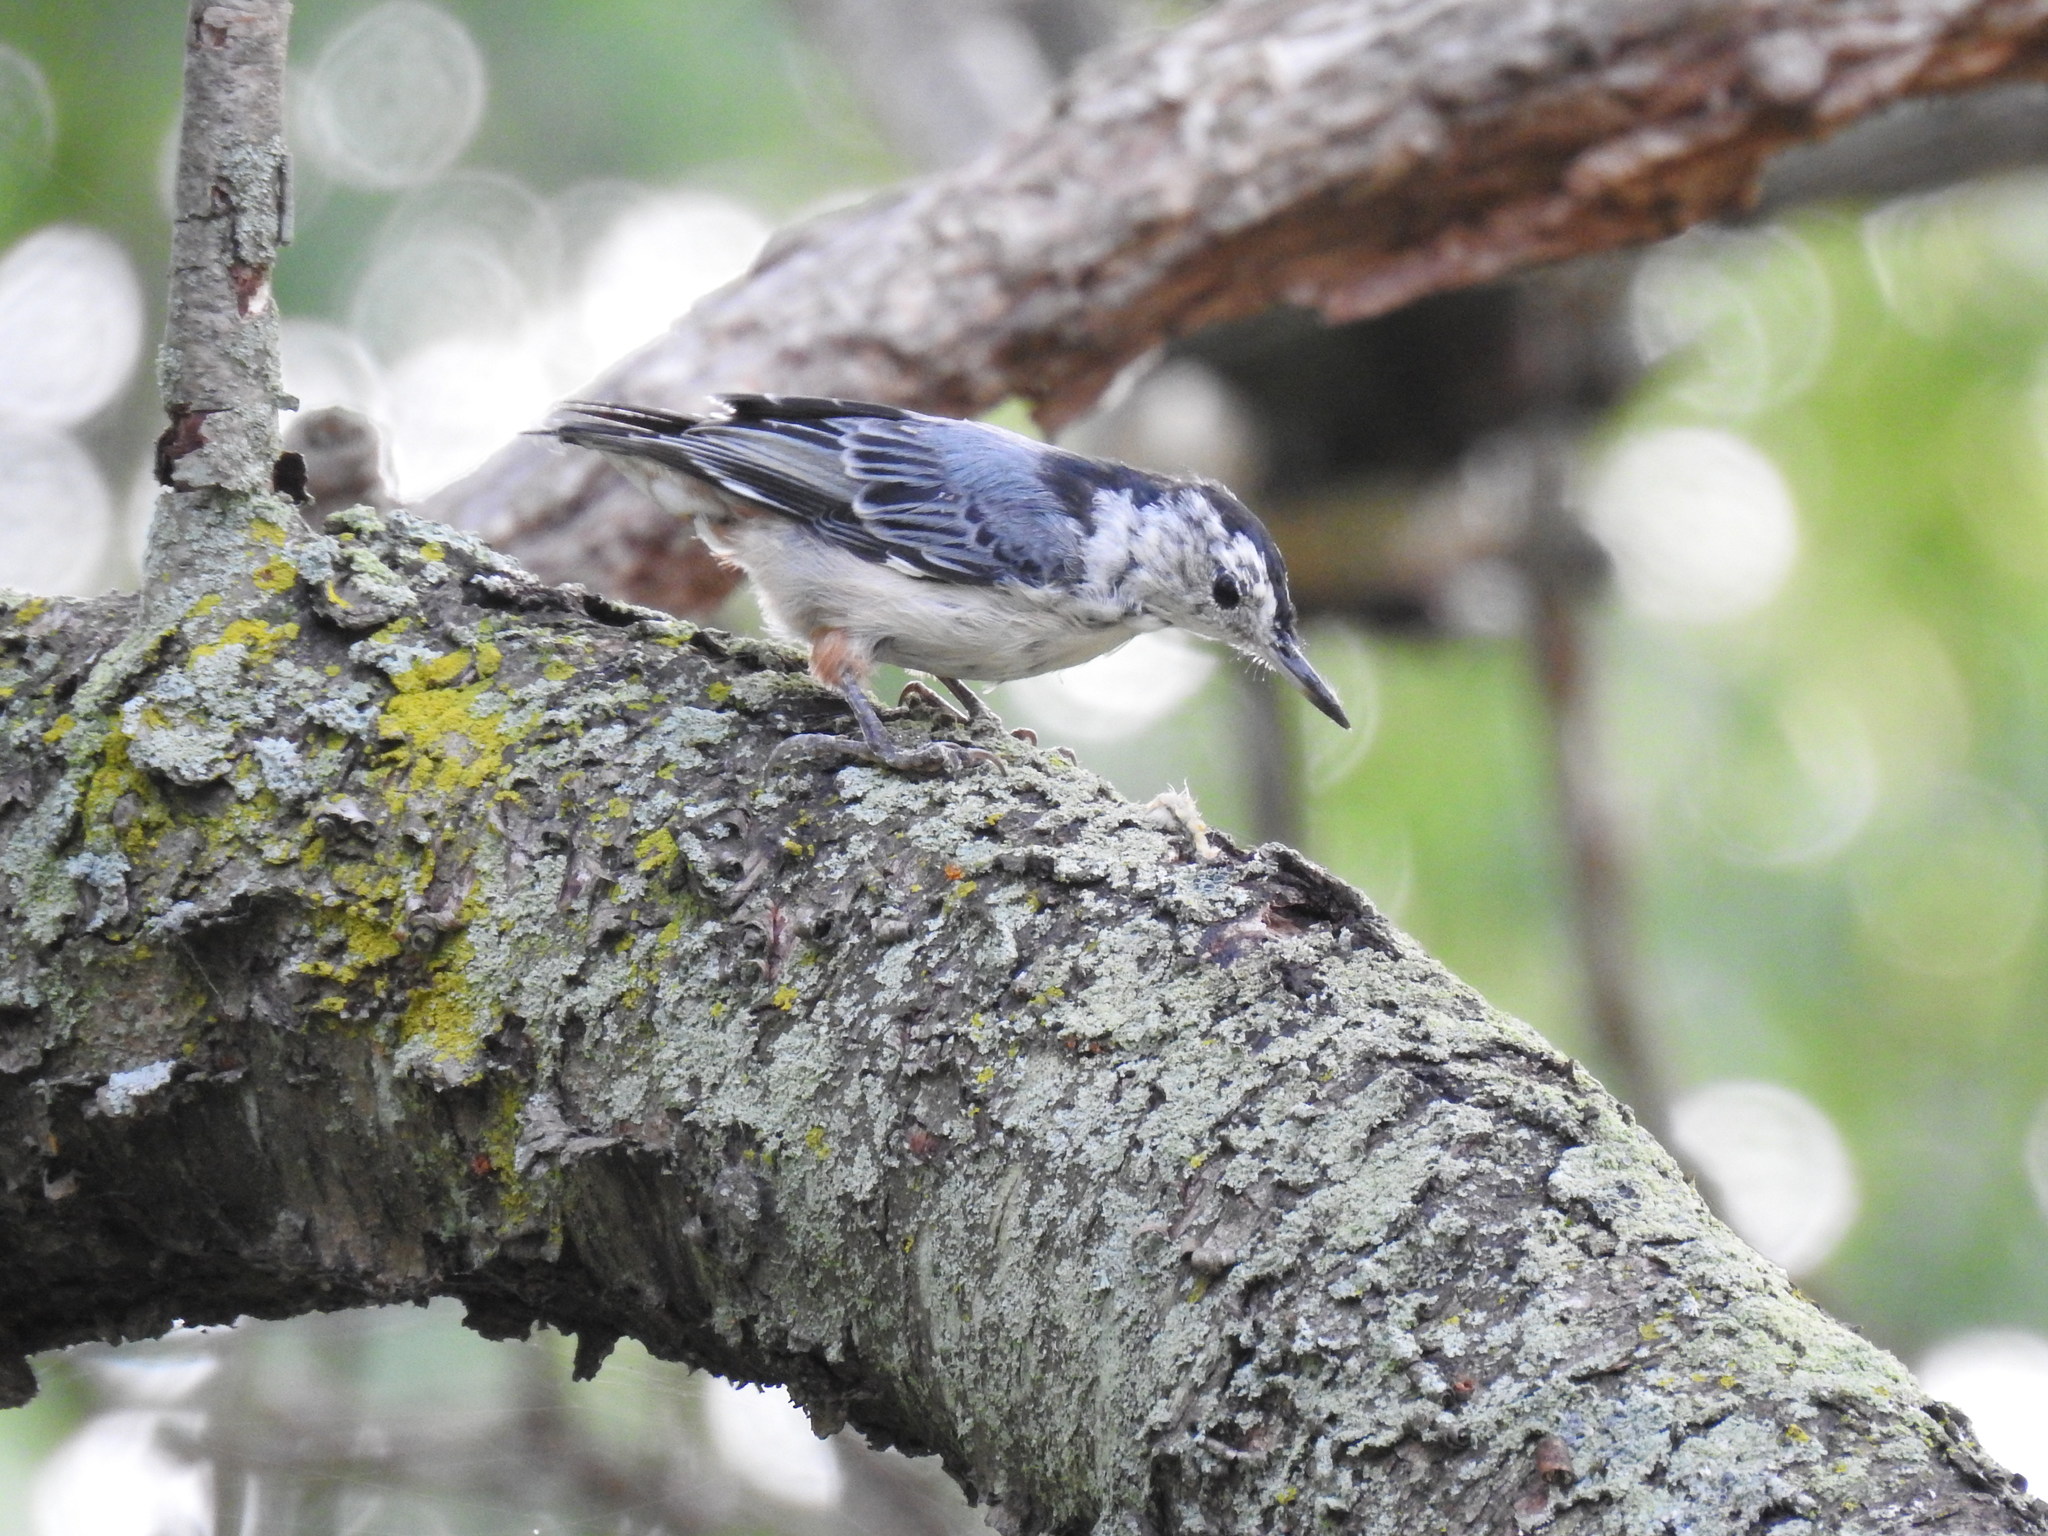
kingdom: Animalia
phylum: Chordata
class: Aves
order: Passeriformes
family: Sittidae
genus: Sitta
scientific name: Sitta carolinensis
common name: White-breasted nuthatch
